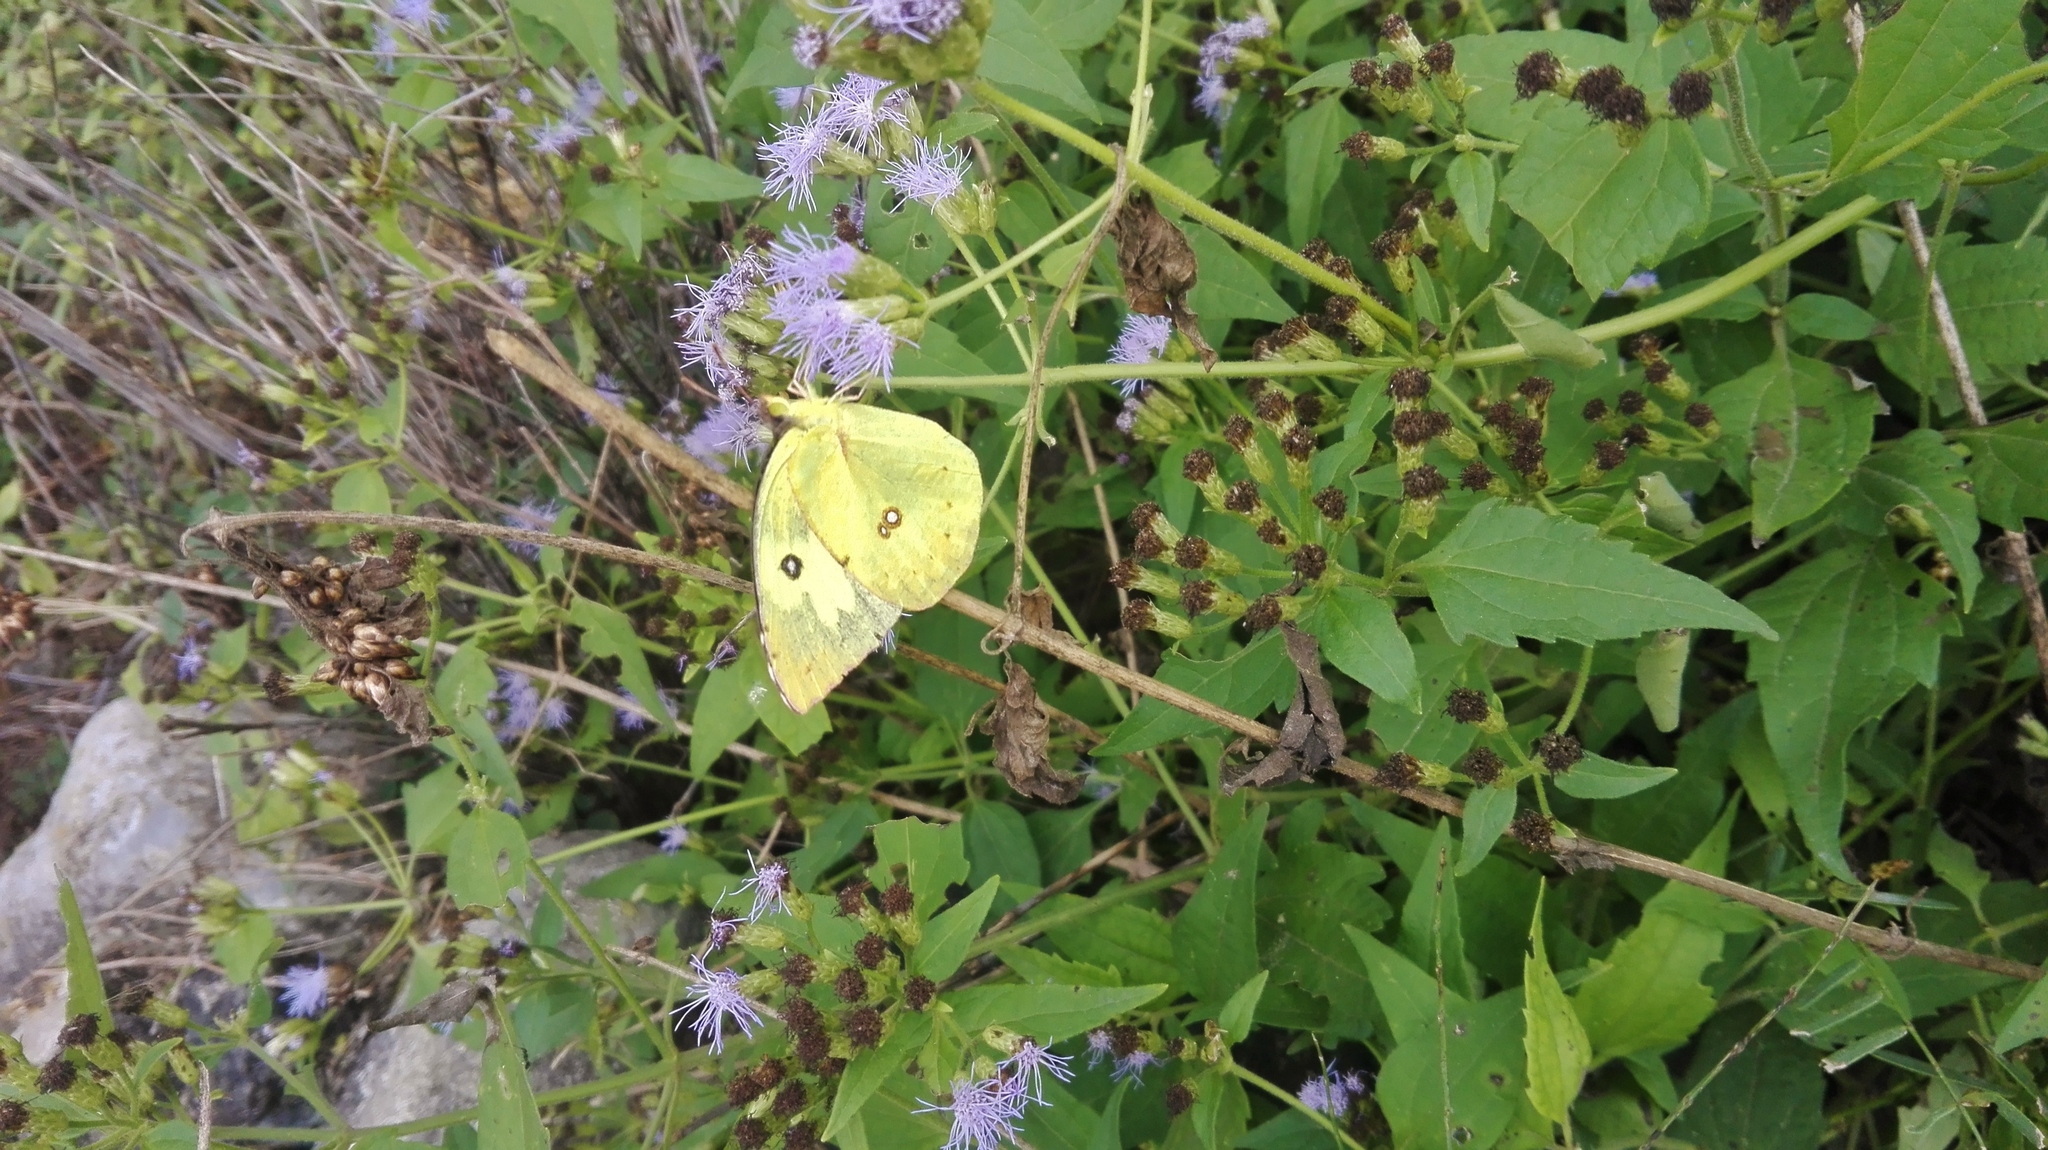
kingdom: Animalia
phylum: Arthropoda
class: Insecta
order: Lepidoptera
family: Pieridae
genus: Zerene
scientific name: Zerene cesonia
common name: Southern dogface
